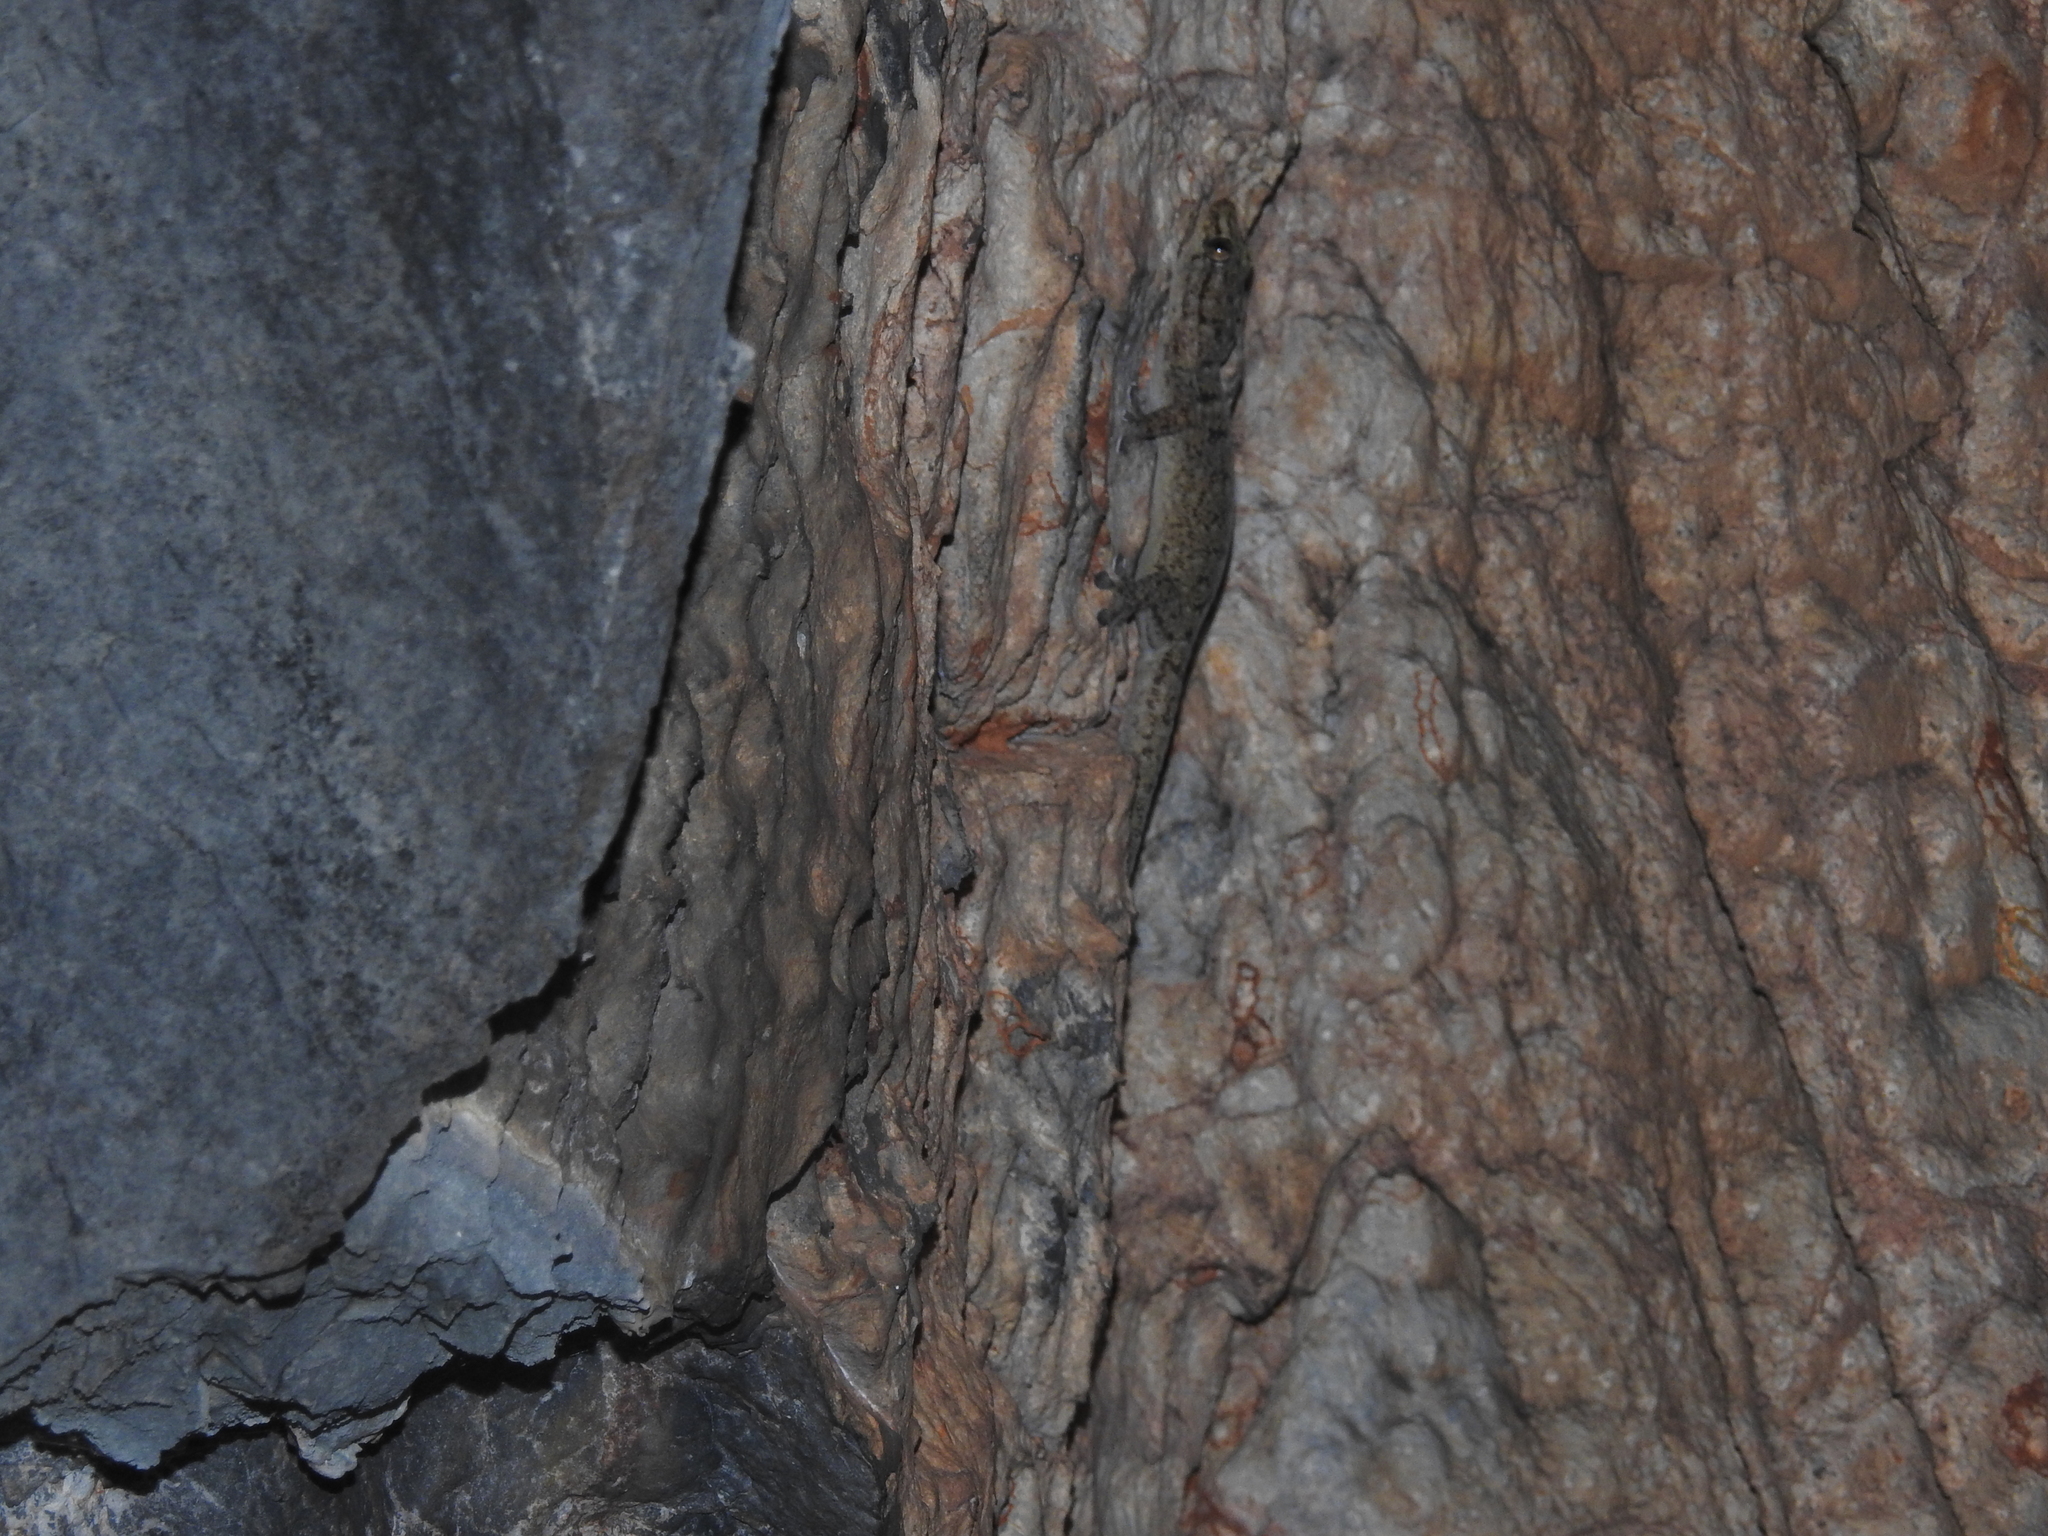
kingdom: Animalia
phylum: Chordata
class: Squamata
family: Gekkonidae
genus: Gehyra
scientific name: Gehyra dubia
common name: Dubious dtella
